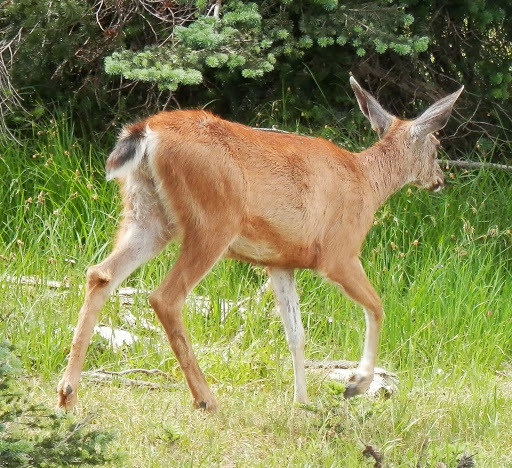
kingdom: Animalia
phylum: Chordata
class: Mammalia
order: Artiodactyla
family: Cervidae
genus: Odocoileus
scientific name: Odocoileus hemionus
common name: Mule deer
